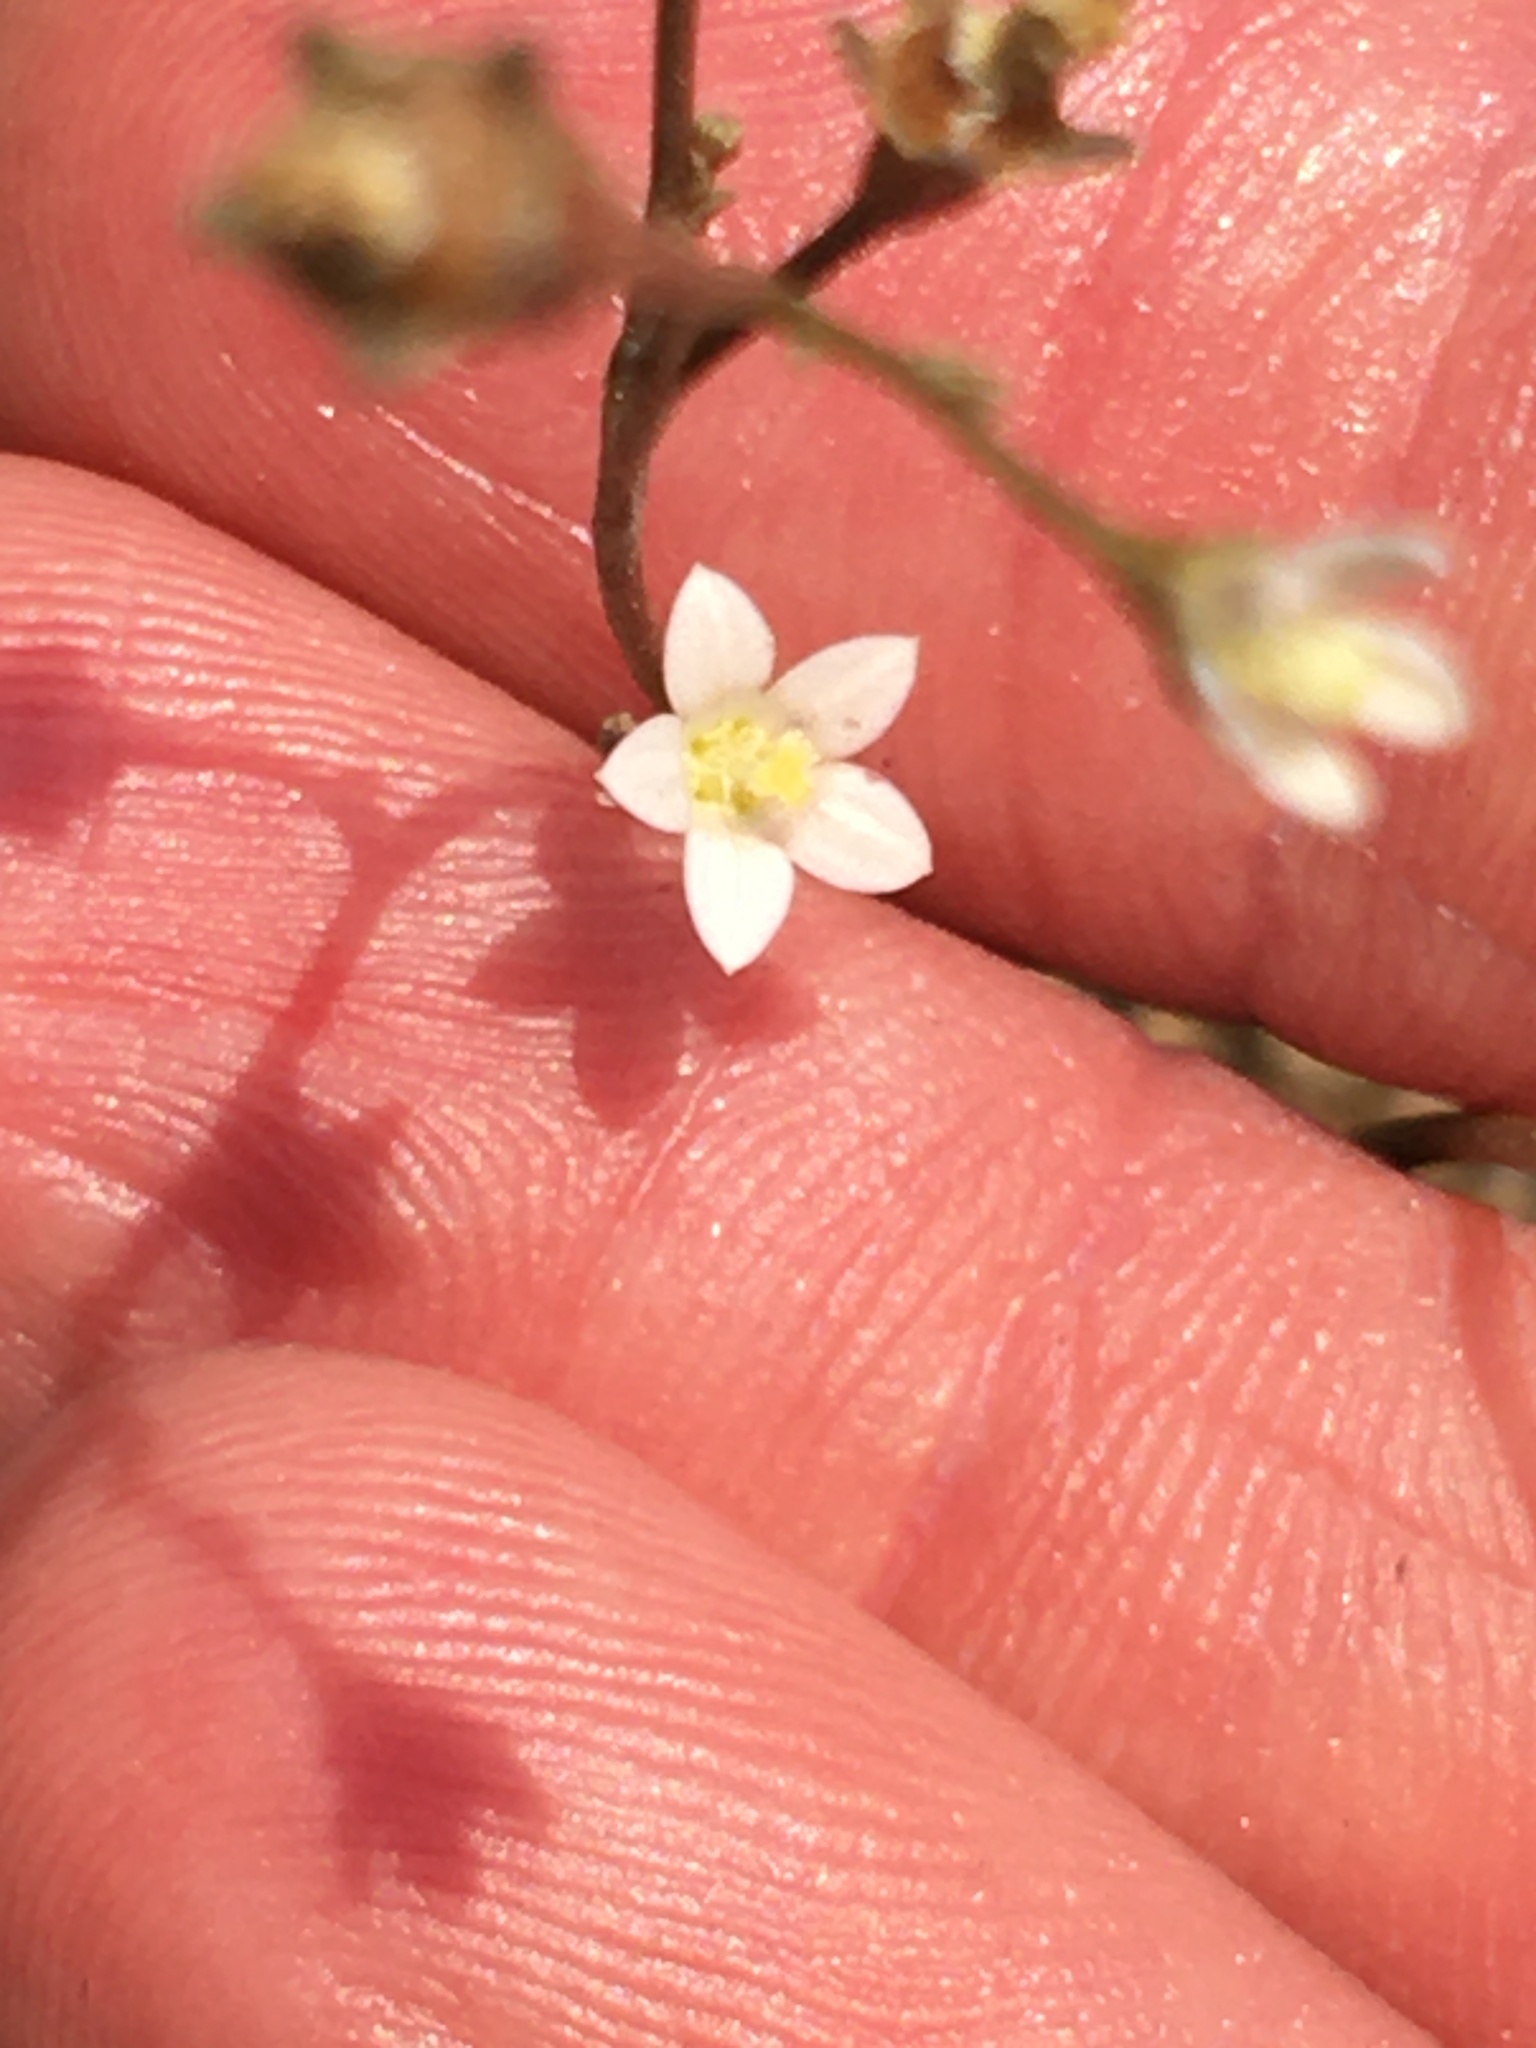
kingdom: Plantae
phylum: Tracheophyta
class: Magnoliopsida
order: Asterales
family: Campanulaceae
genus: Wahlenbergia
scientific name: Wahlenbergia androsacea
